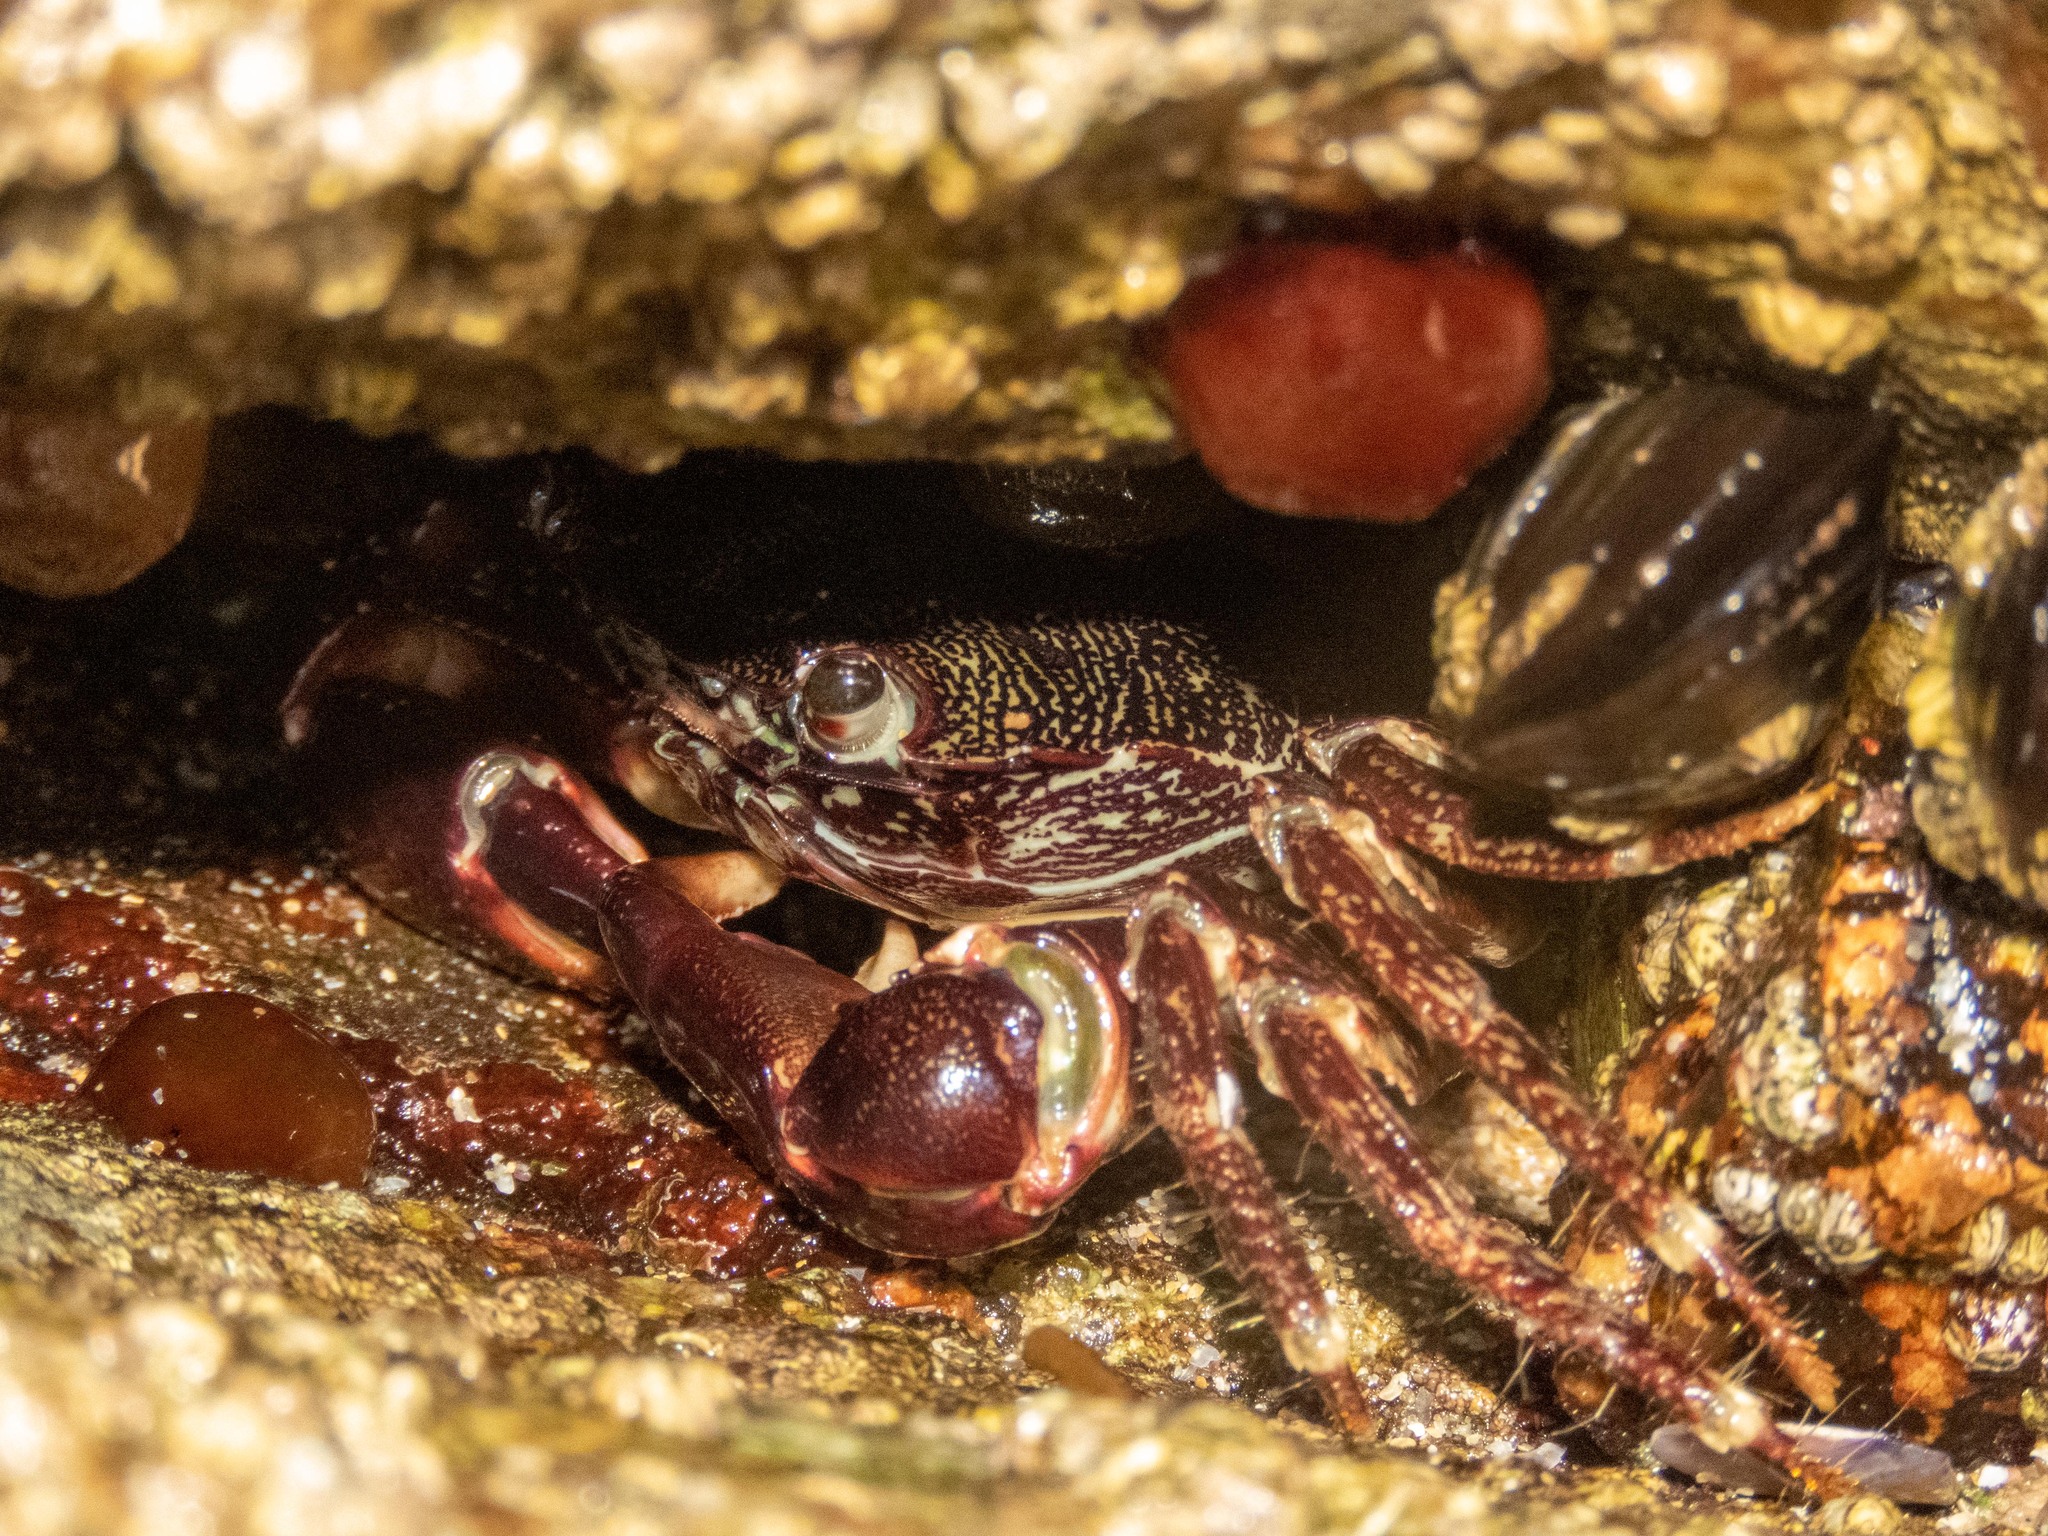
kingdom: Animalia
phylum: Arthropoda
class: Malacostraca
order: Decapoda
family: Grapsidae
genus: Pachygrapsus
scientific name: Pachygrapsus marmoratus
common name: Marbled rock crab
